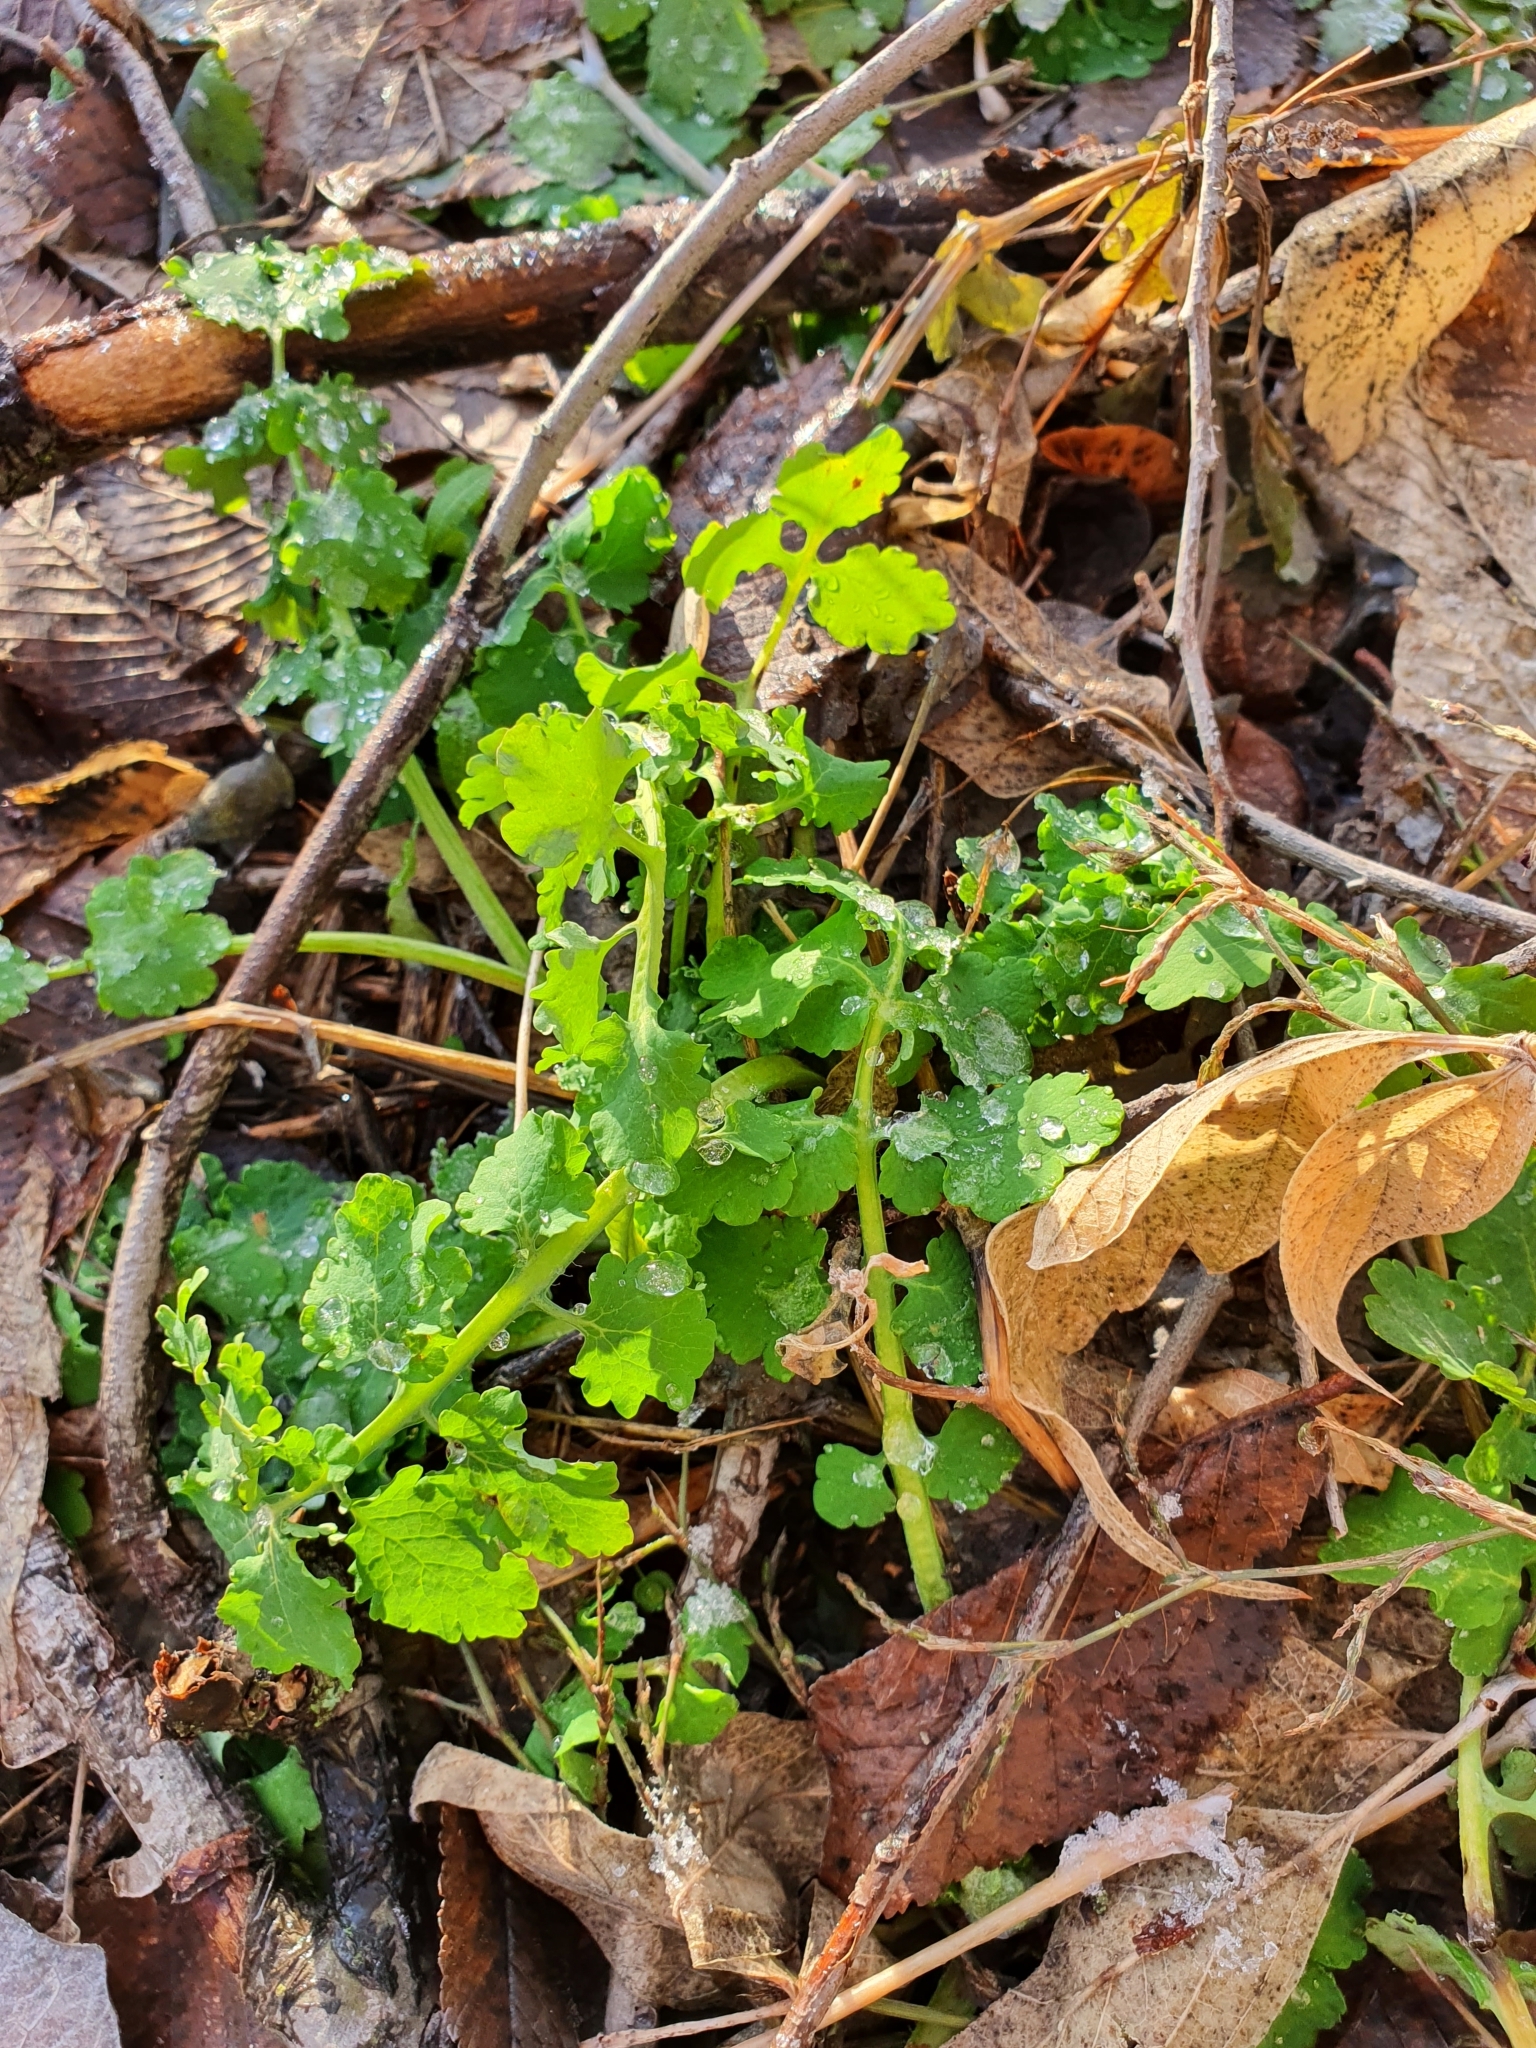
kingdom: Plantae
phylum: Tracheophyta
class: Magnoliopsida
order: Ranunculales
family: Papaveraceae
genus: Chelidonium
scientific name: Chelidonium majus
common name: Greater celandine
